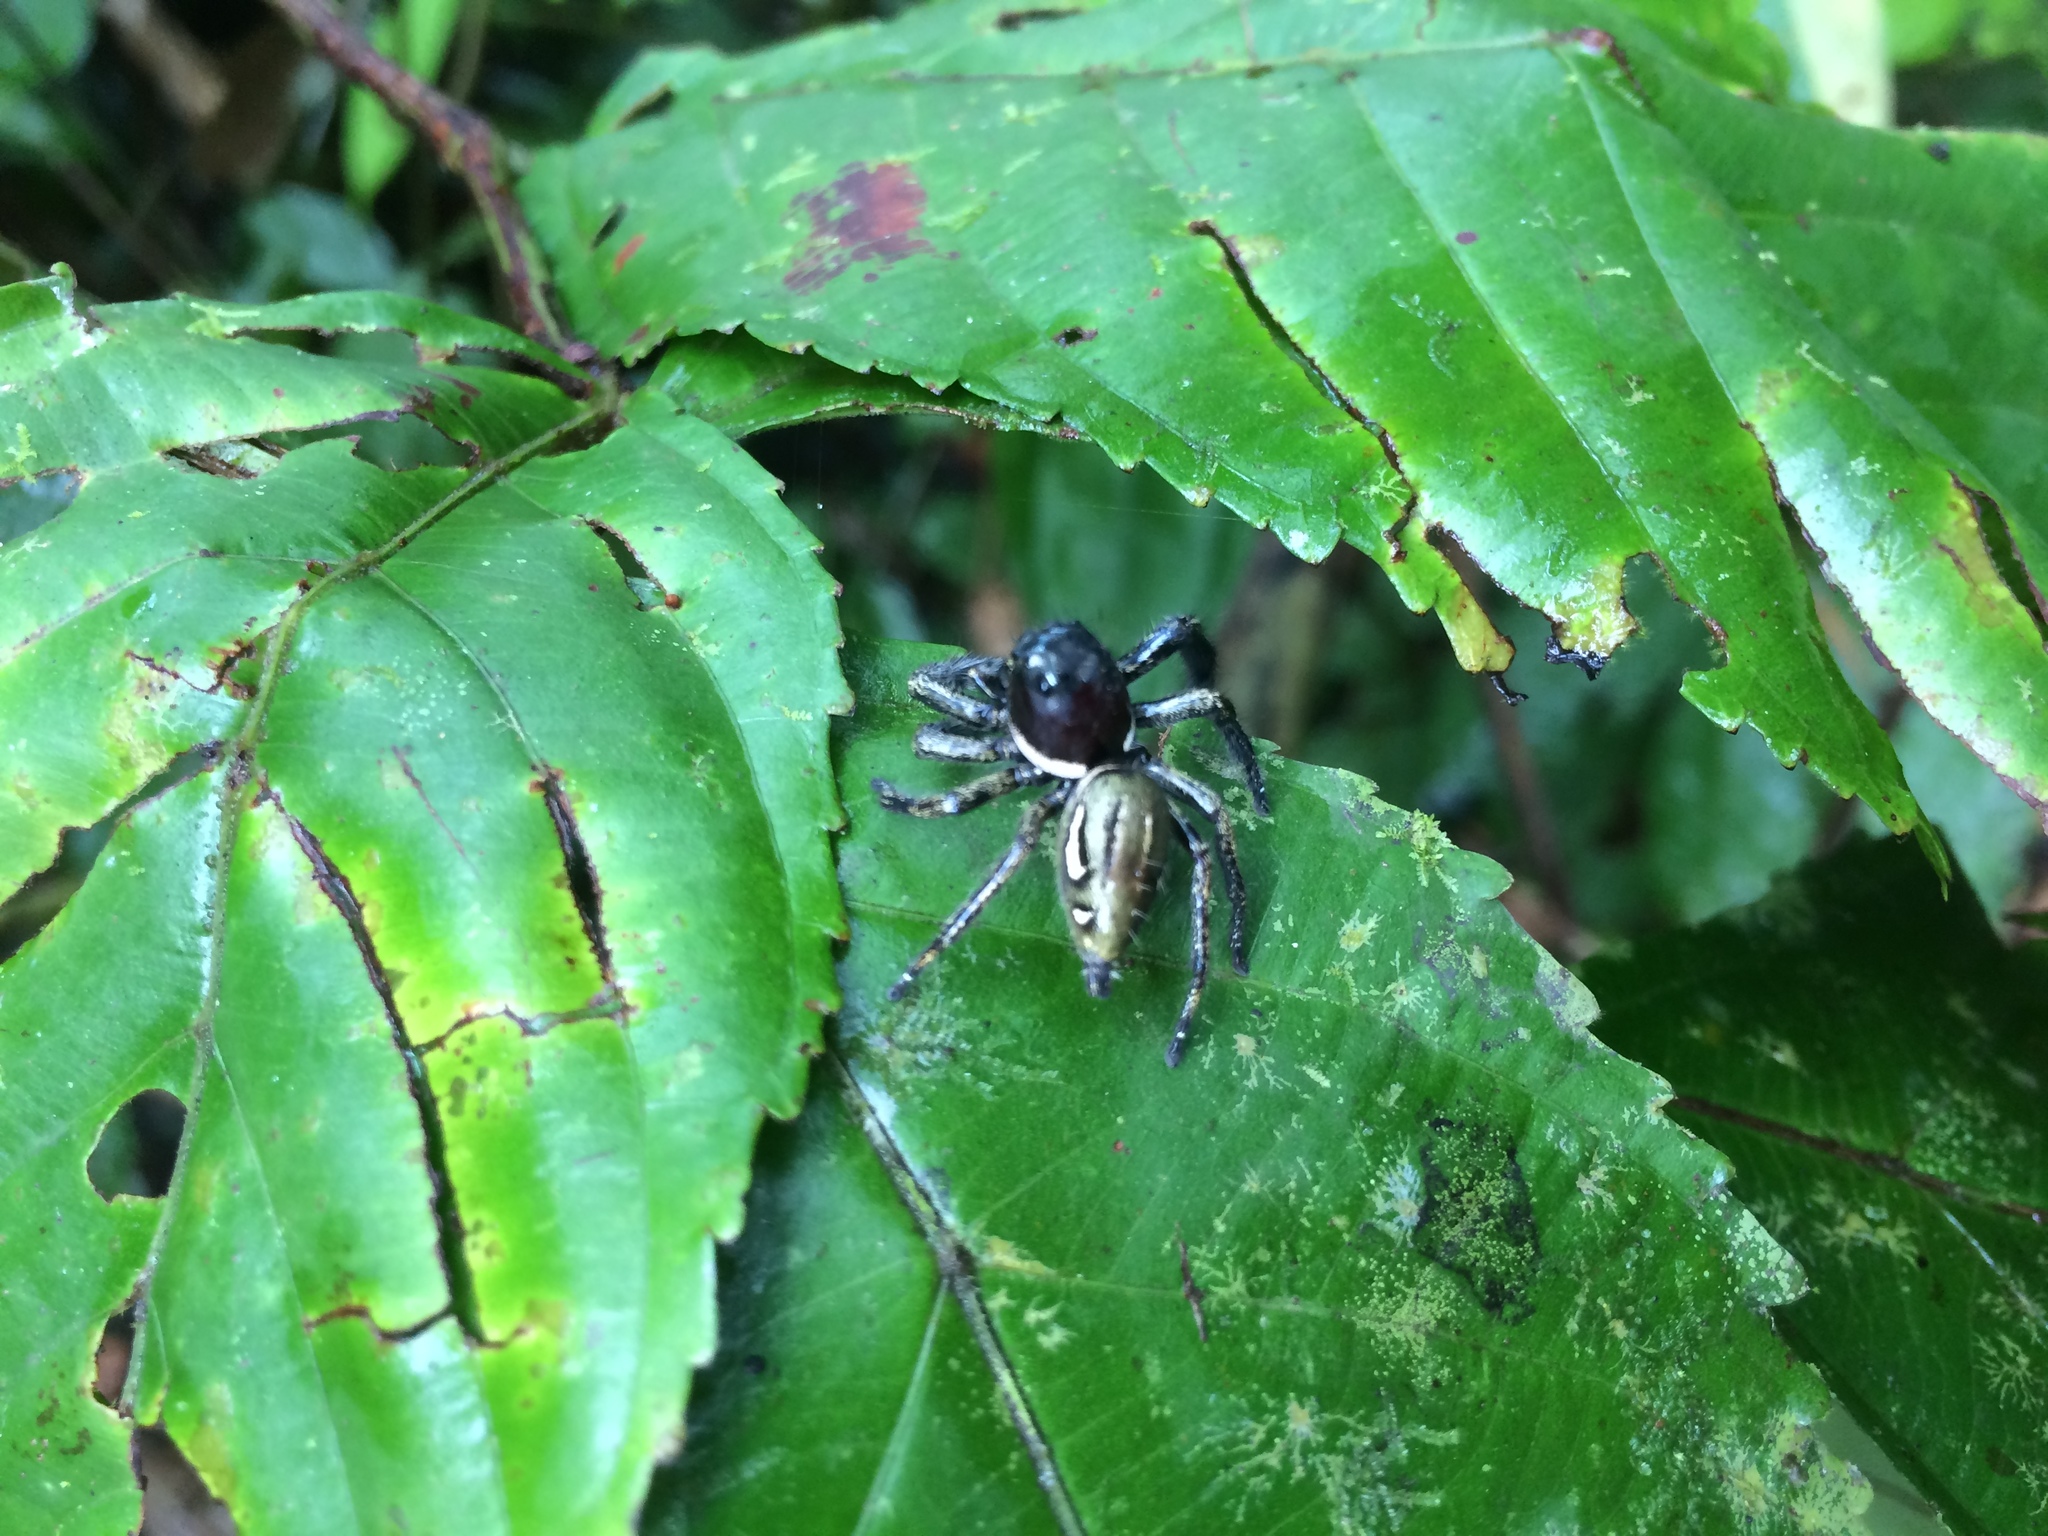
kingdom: Animalia
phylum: Arthropoda
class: Arachnida
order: Araneae
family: Salticidae
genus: Hyllus
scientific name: Hyllus keratodes
